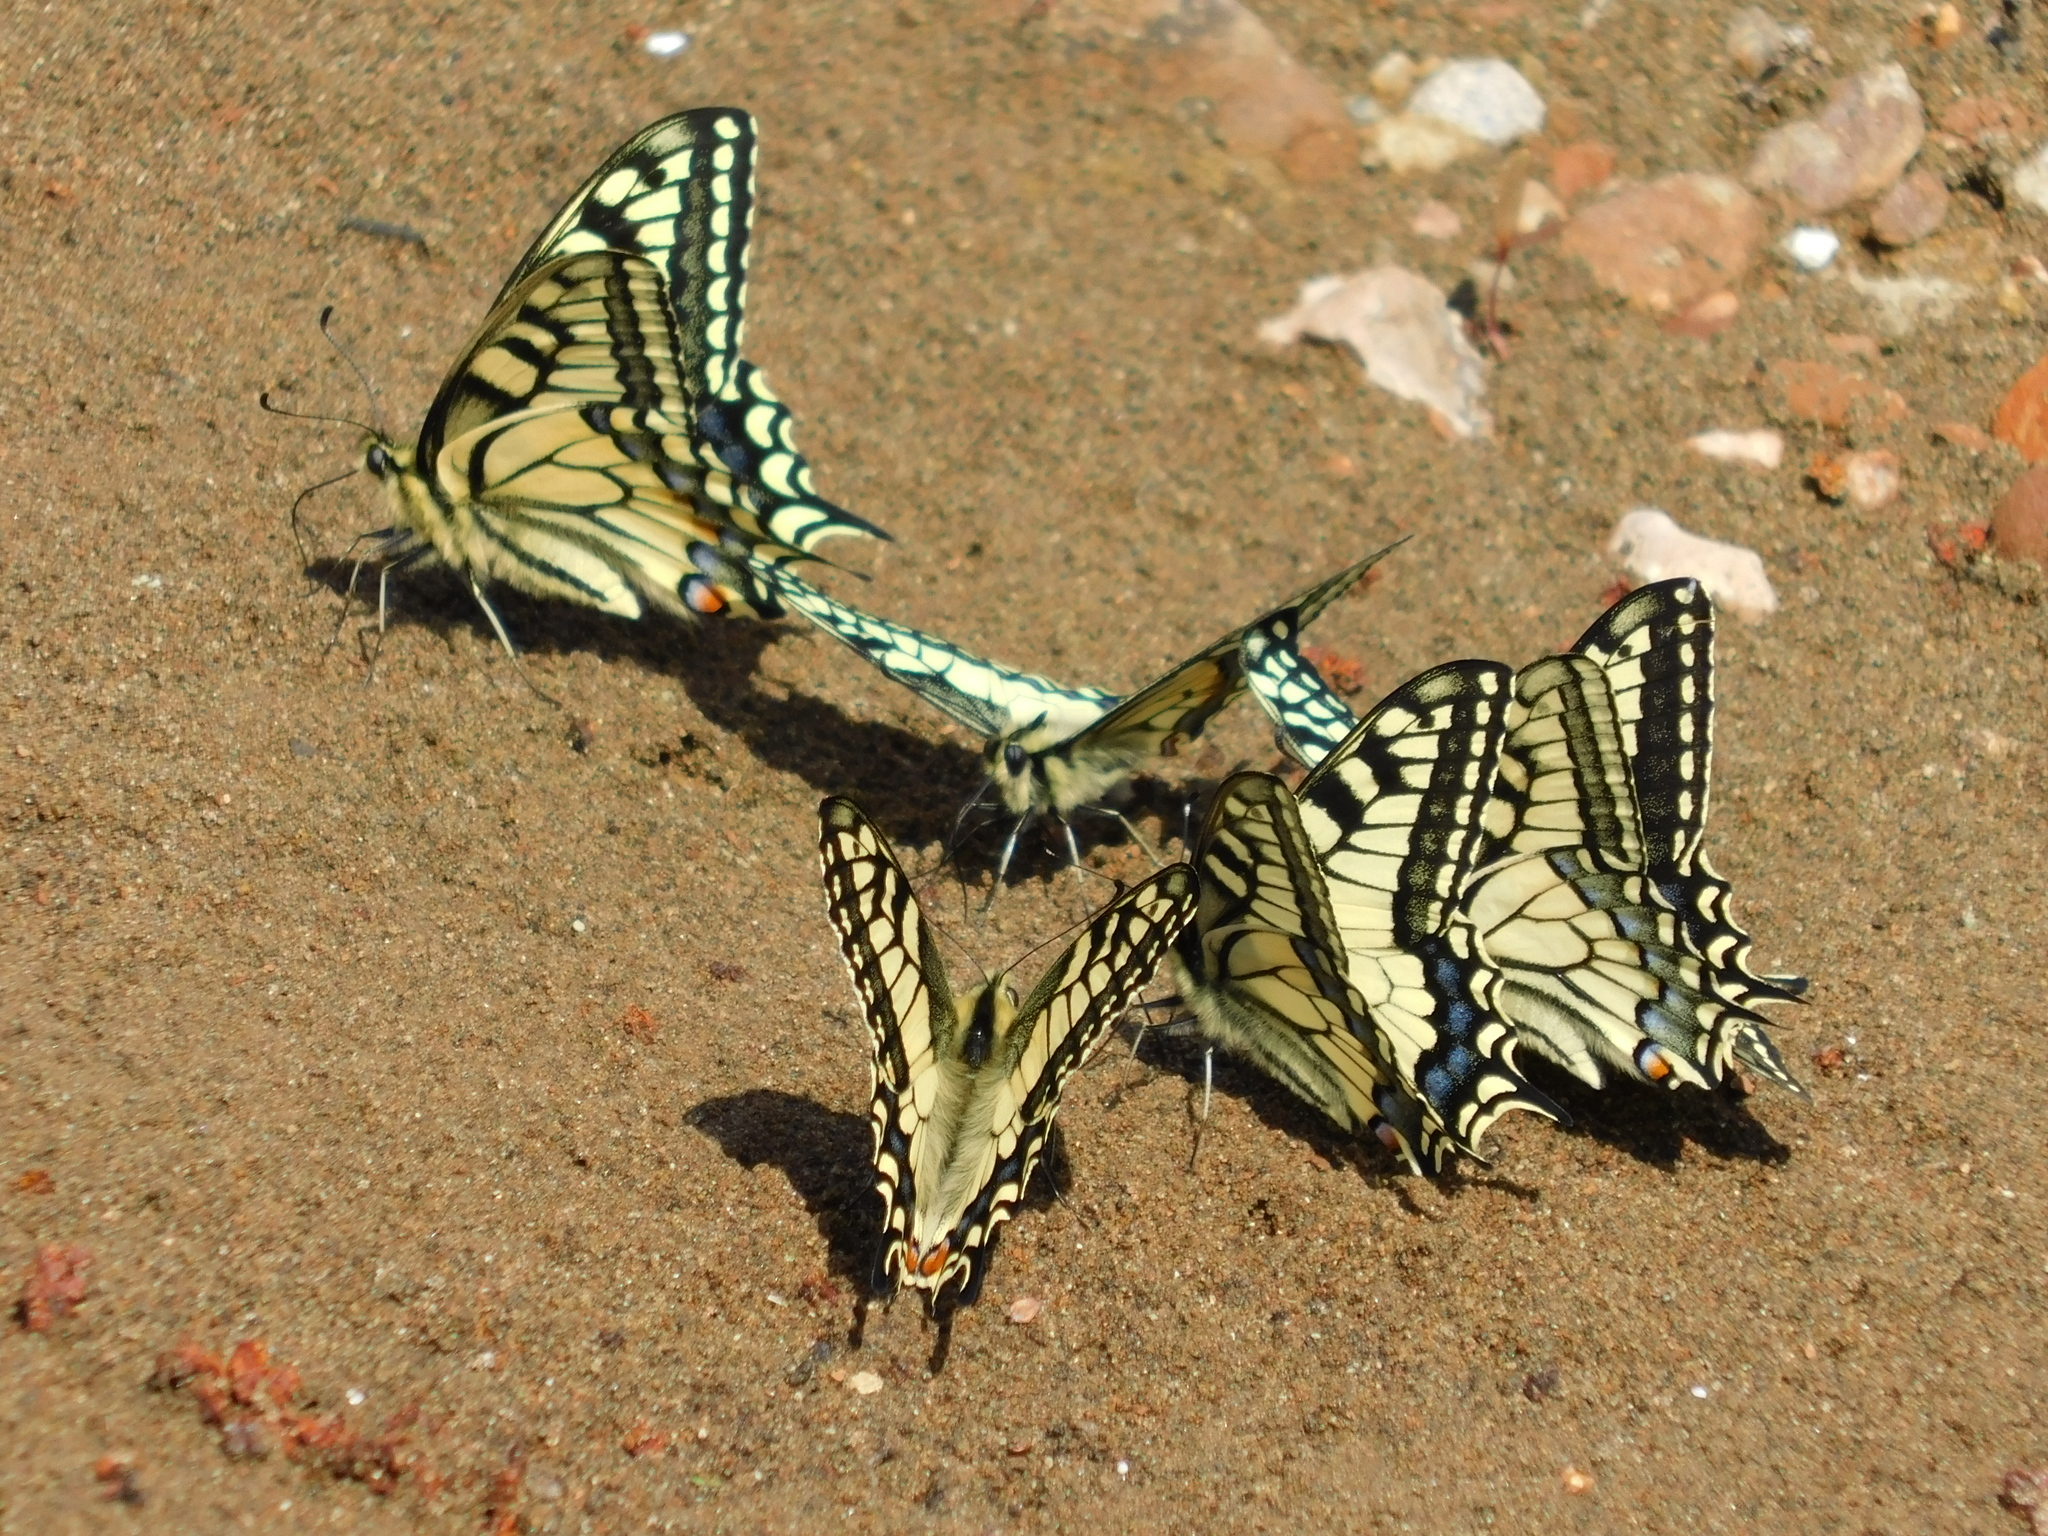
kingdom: Animalia
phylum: Arthropoda
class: Insecta
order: Lepidoptera
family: Papilionidae
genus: Papilio
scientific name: Papilio machaon
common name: Swallowtail
